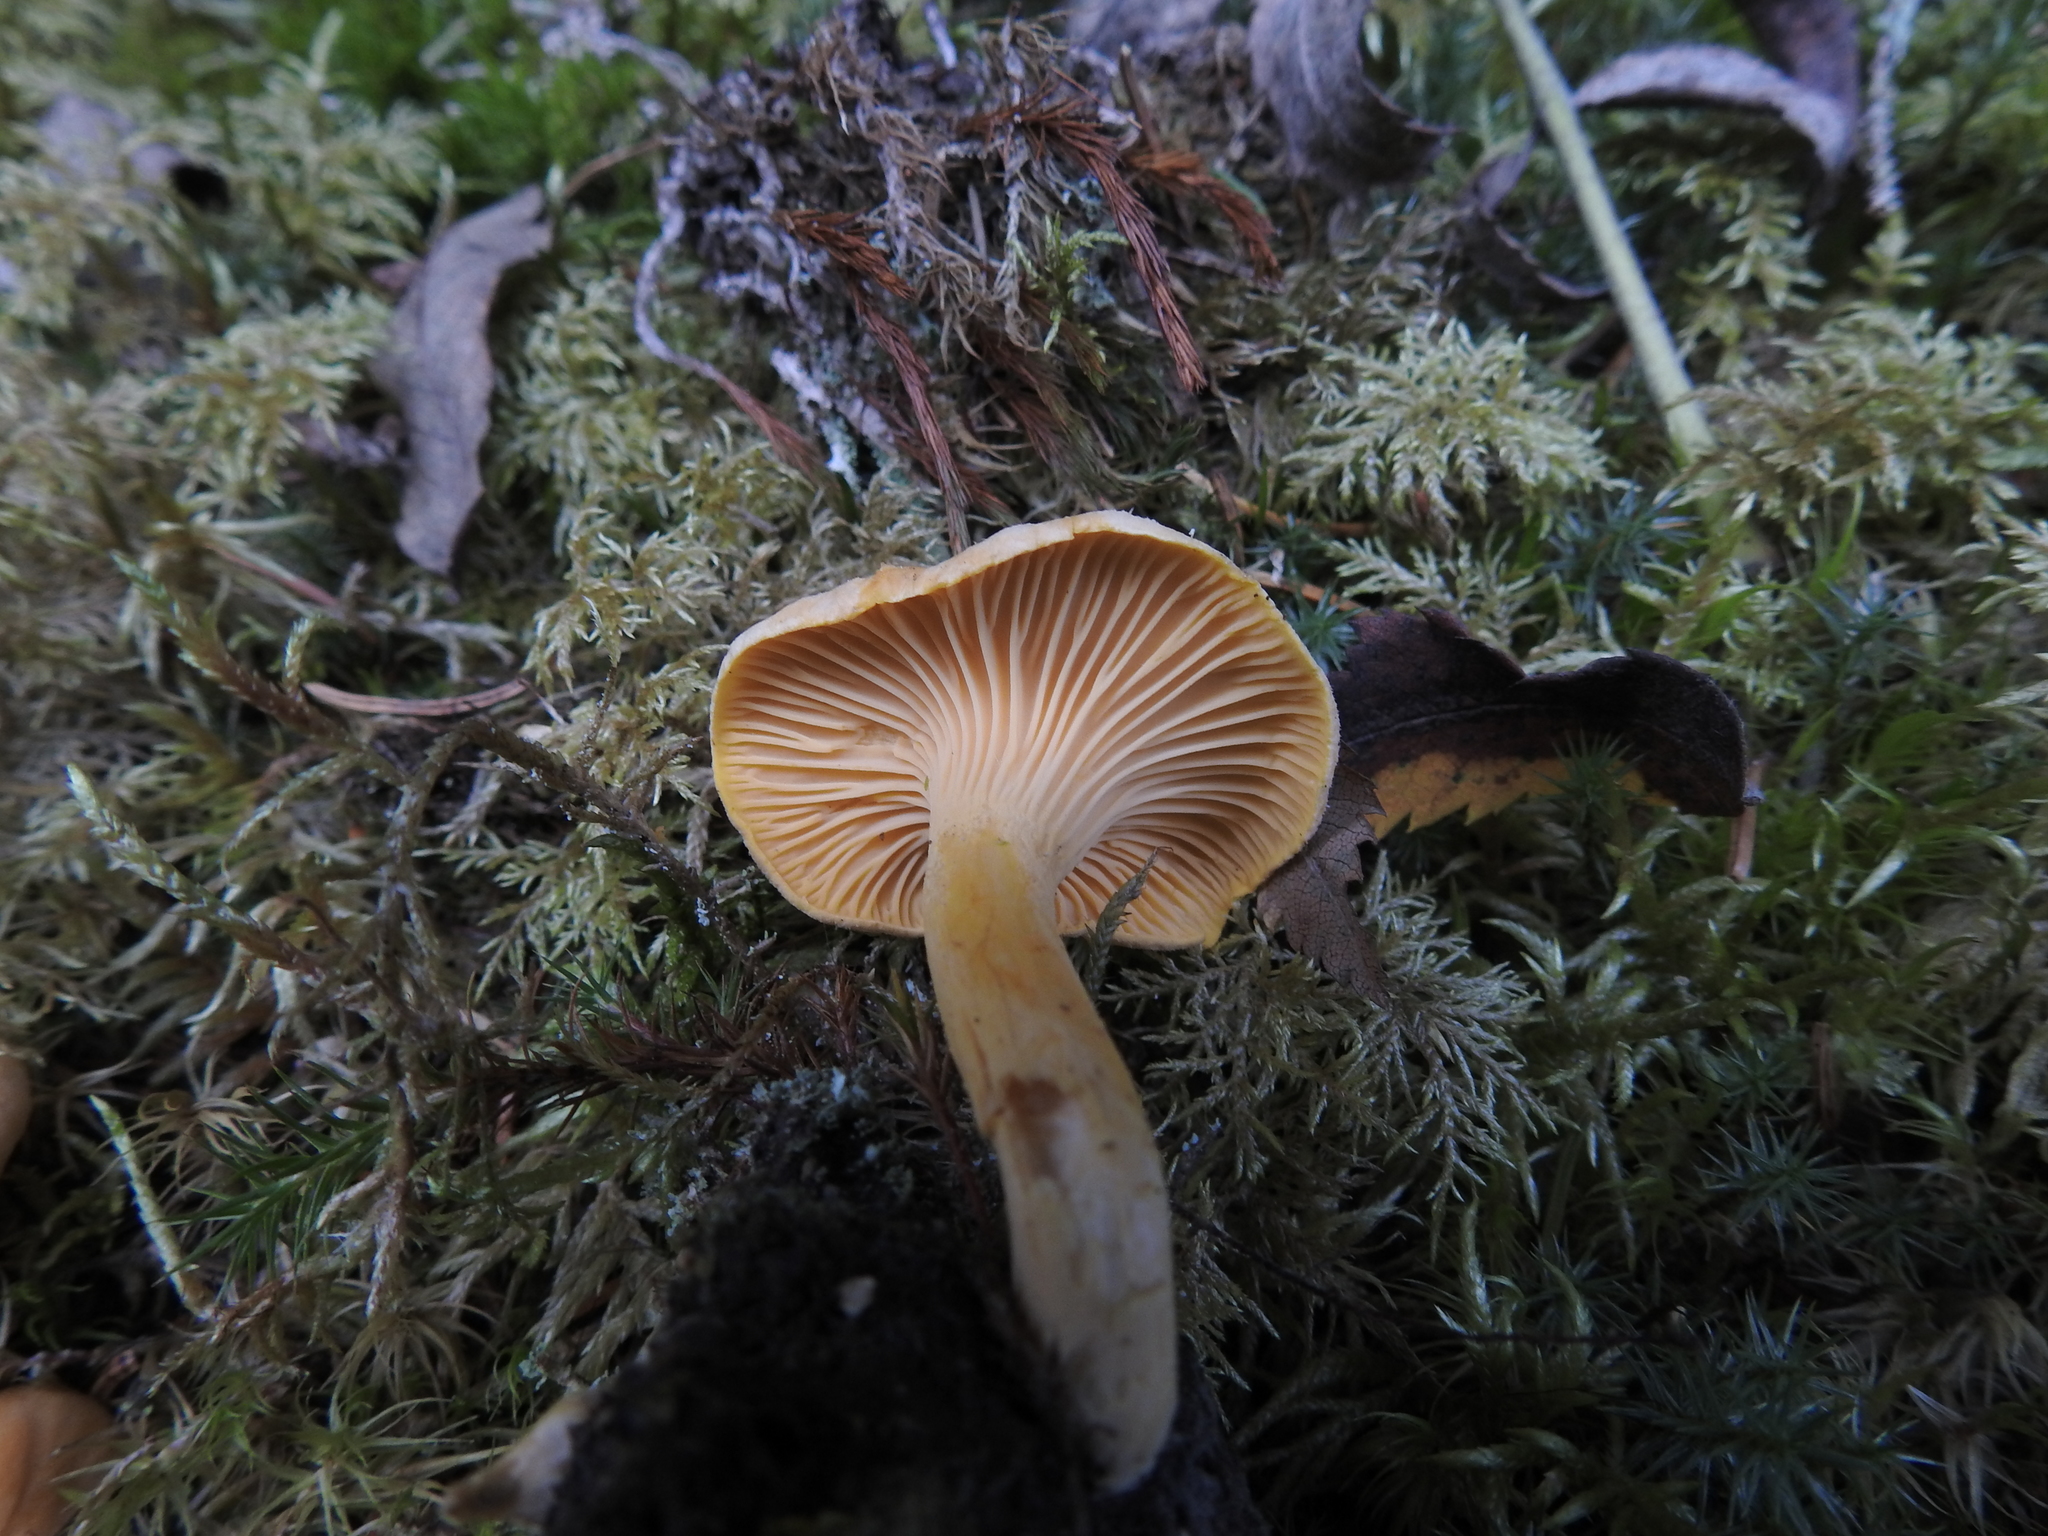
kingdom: Fungi
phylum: Basidiomycota
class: Agaricomycetes
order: Cantharellales
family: Hydnaceae
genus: Cantharellus
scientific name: Cantharellus cibarius
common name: Chanterelle
